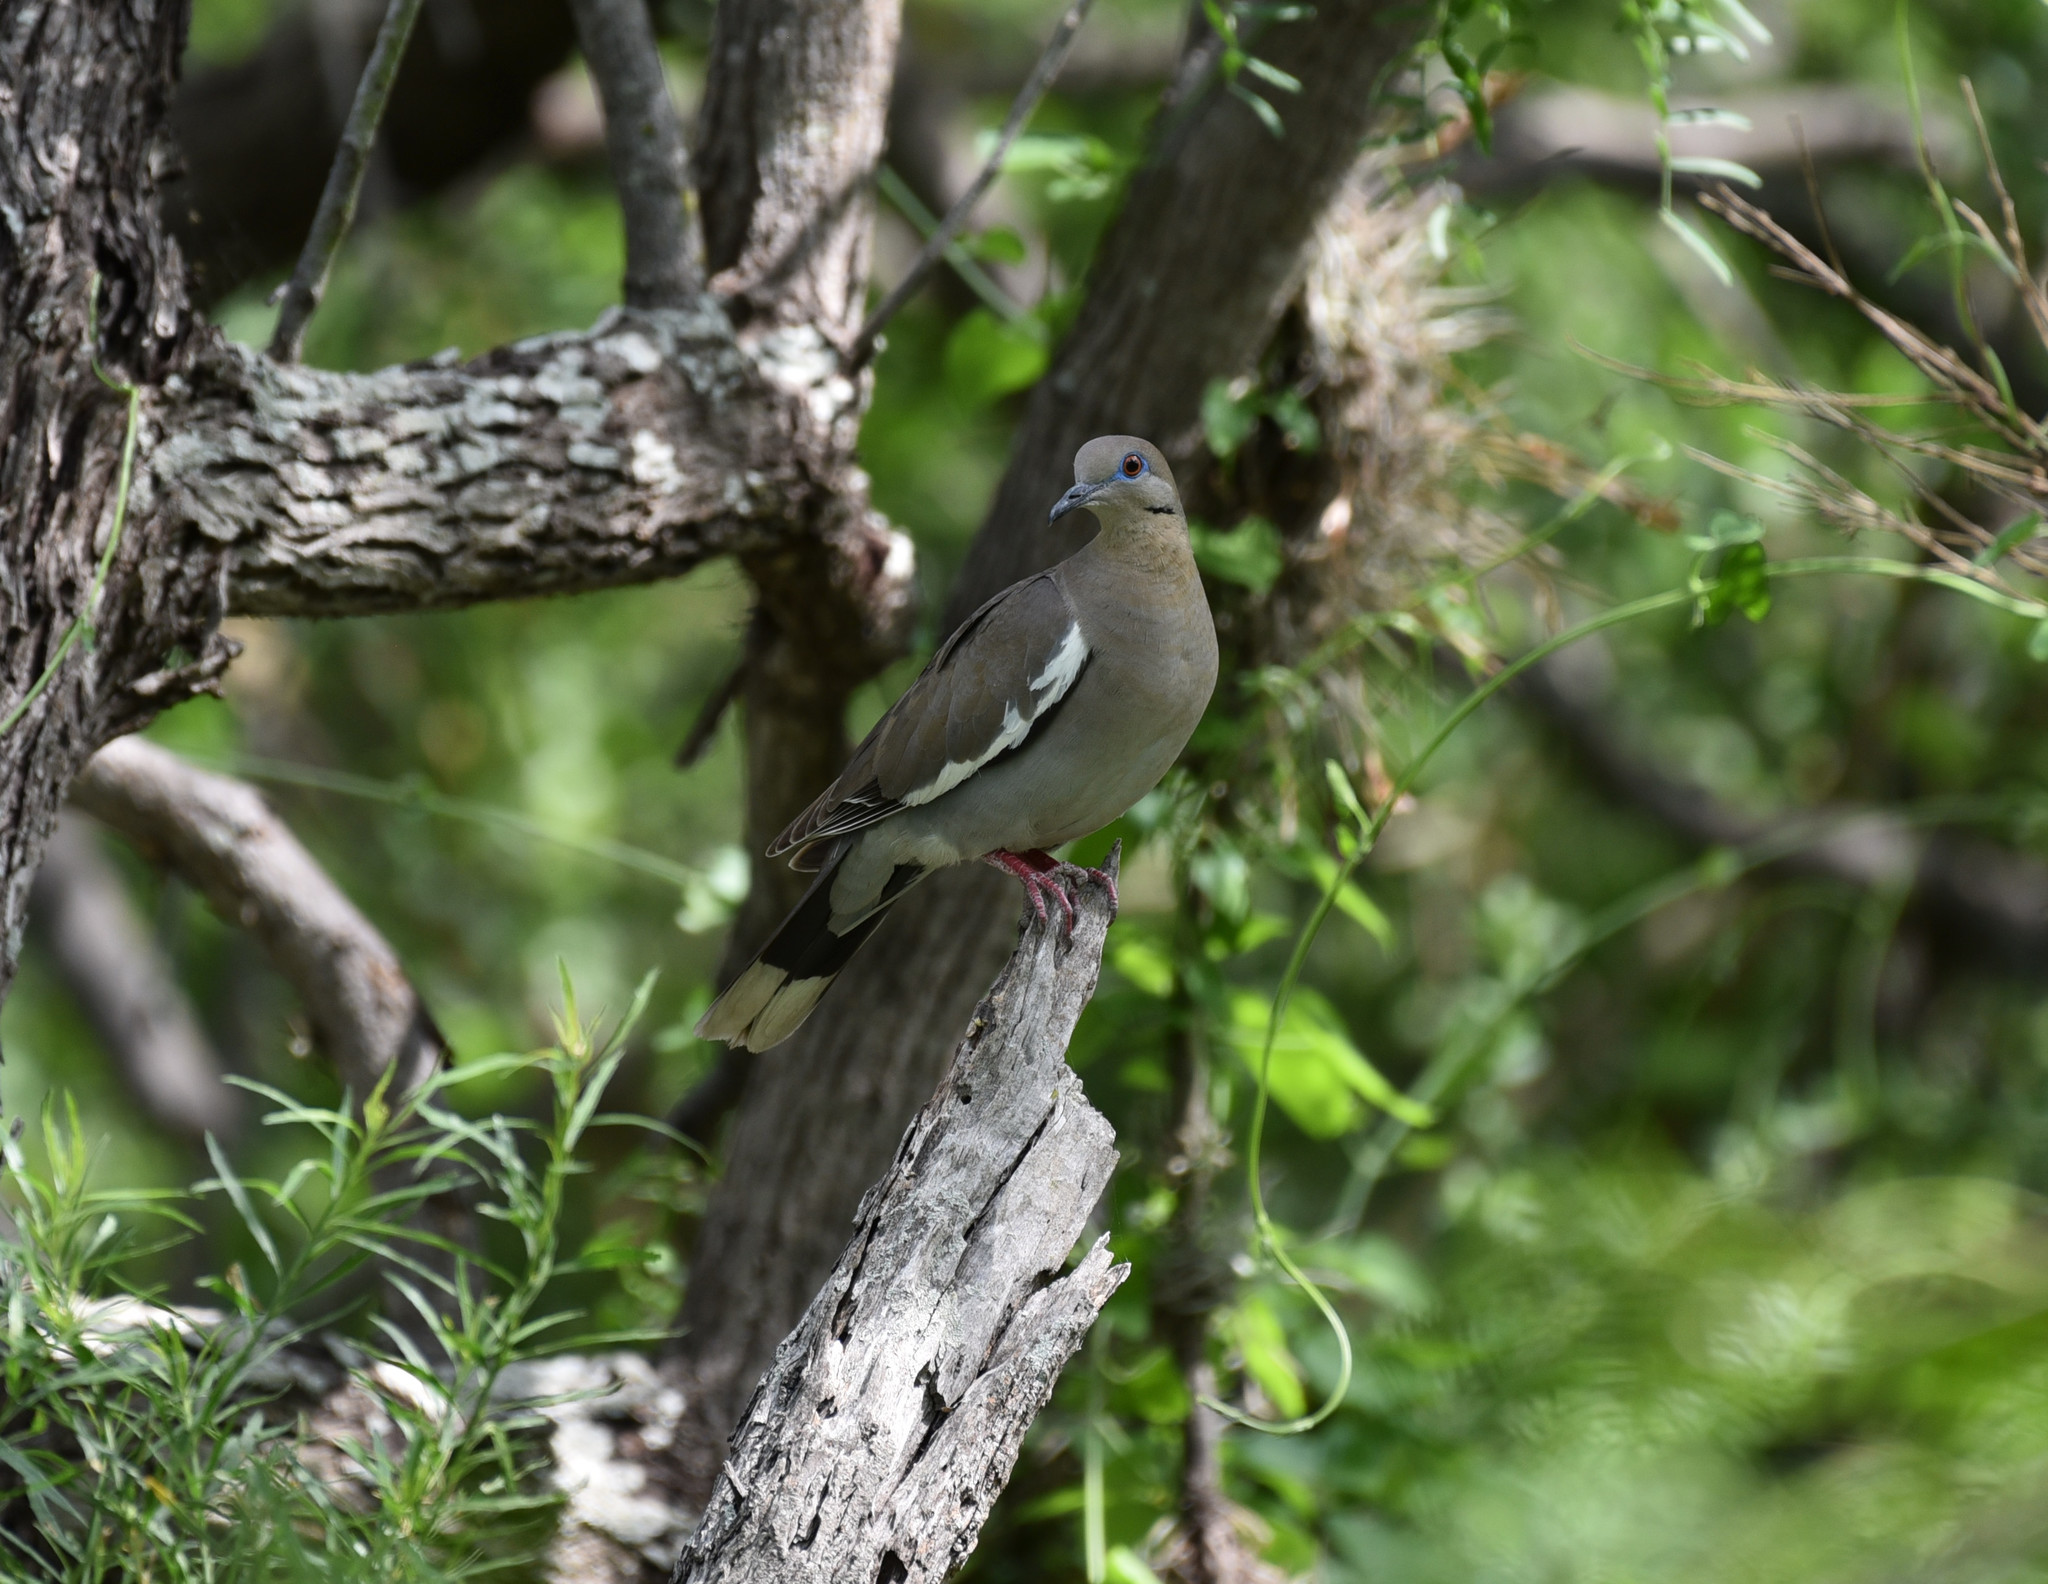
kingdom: Animalia
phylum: Chordata
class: Aves
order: Columbiformes
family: Columbidae
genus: Zenaida
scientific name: Zenaida asiatica
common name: White-winged dove
